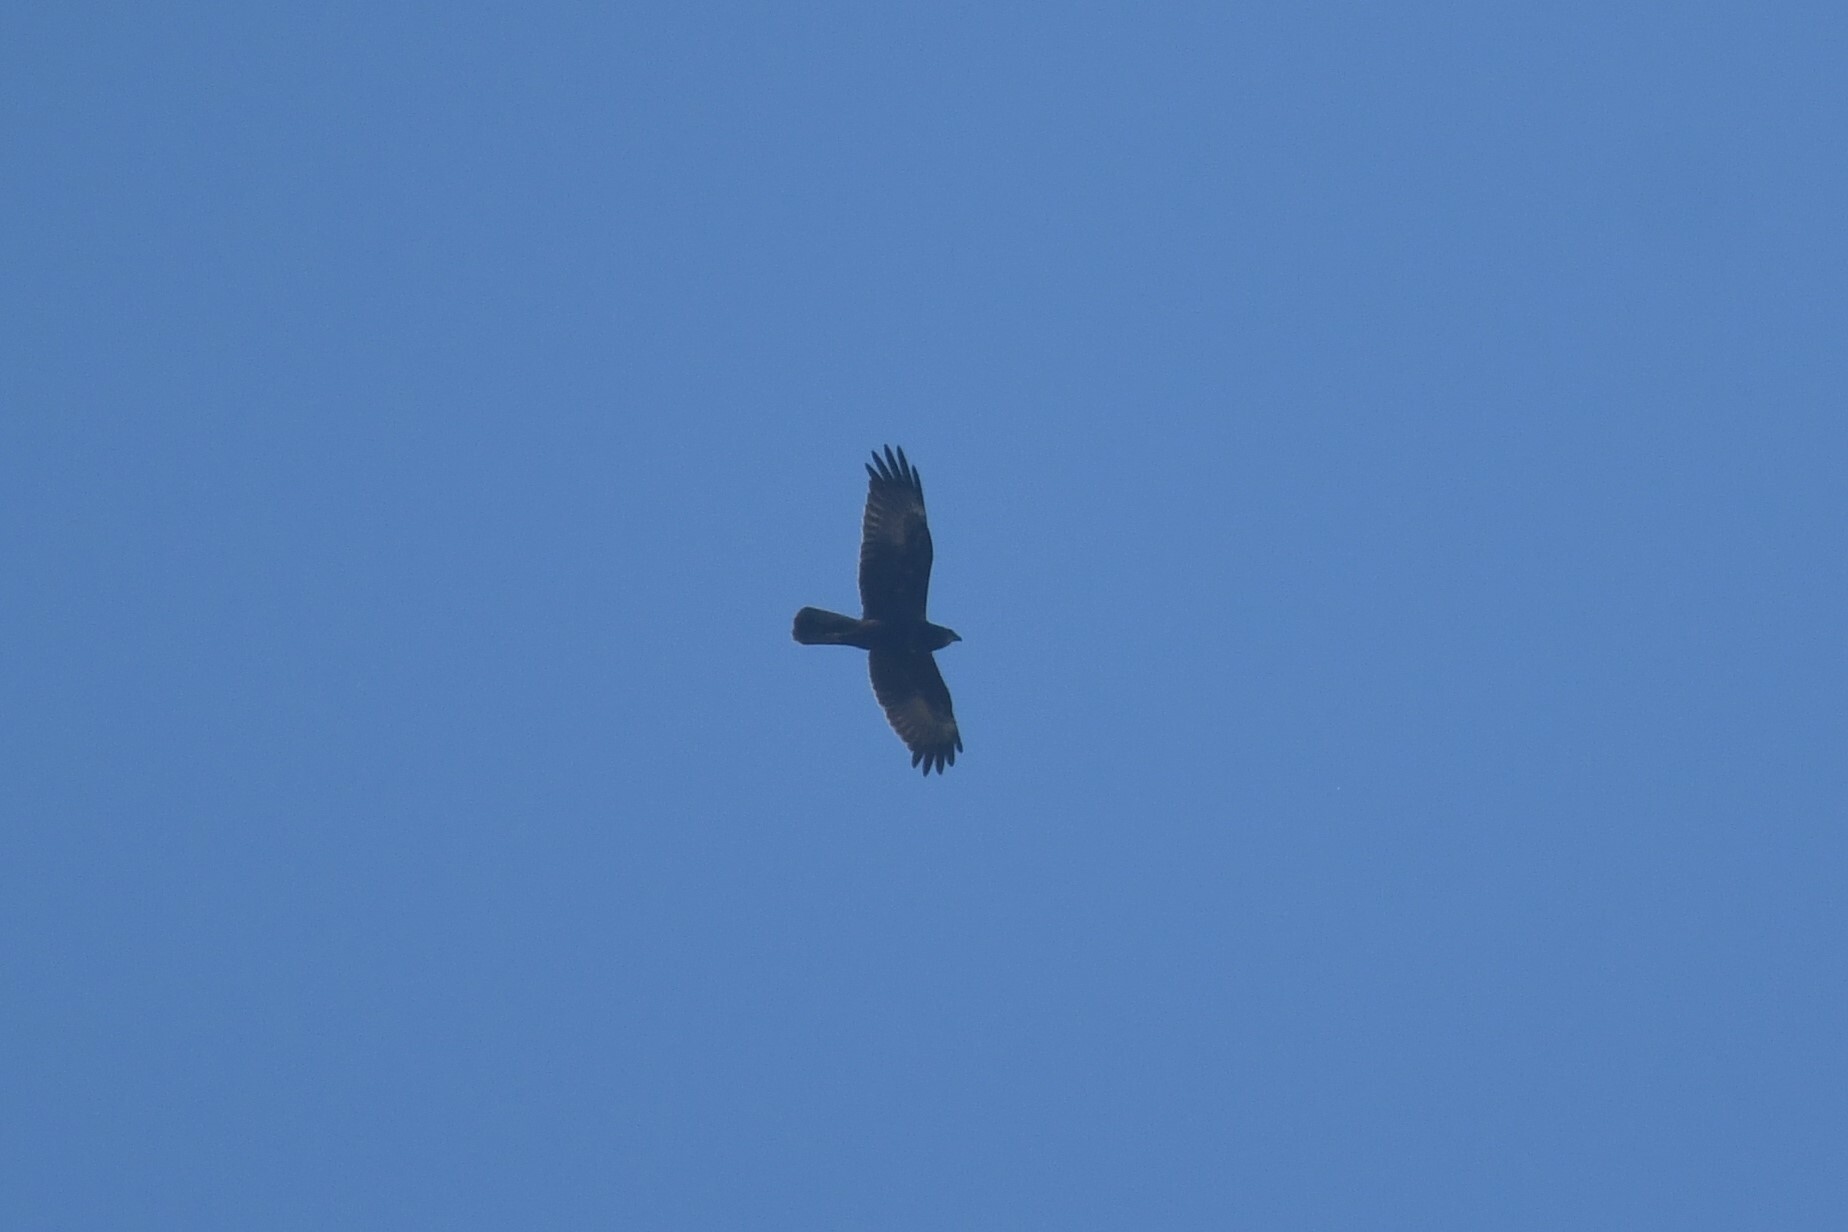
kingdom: Animalia
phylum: Chordata
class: Aves
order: Accipitriformes
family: Accipitridae
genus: Circus
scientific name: Circus spilonotus
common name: Eastern marsh-harrier
